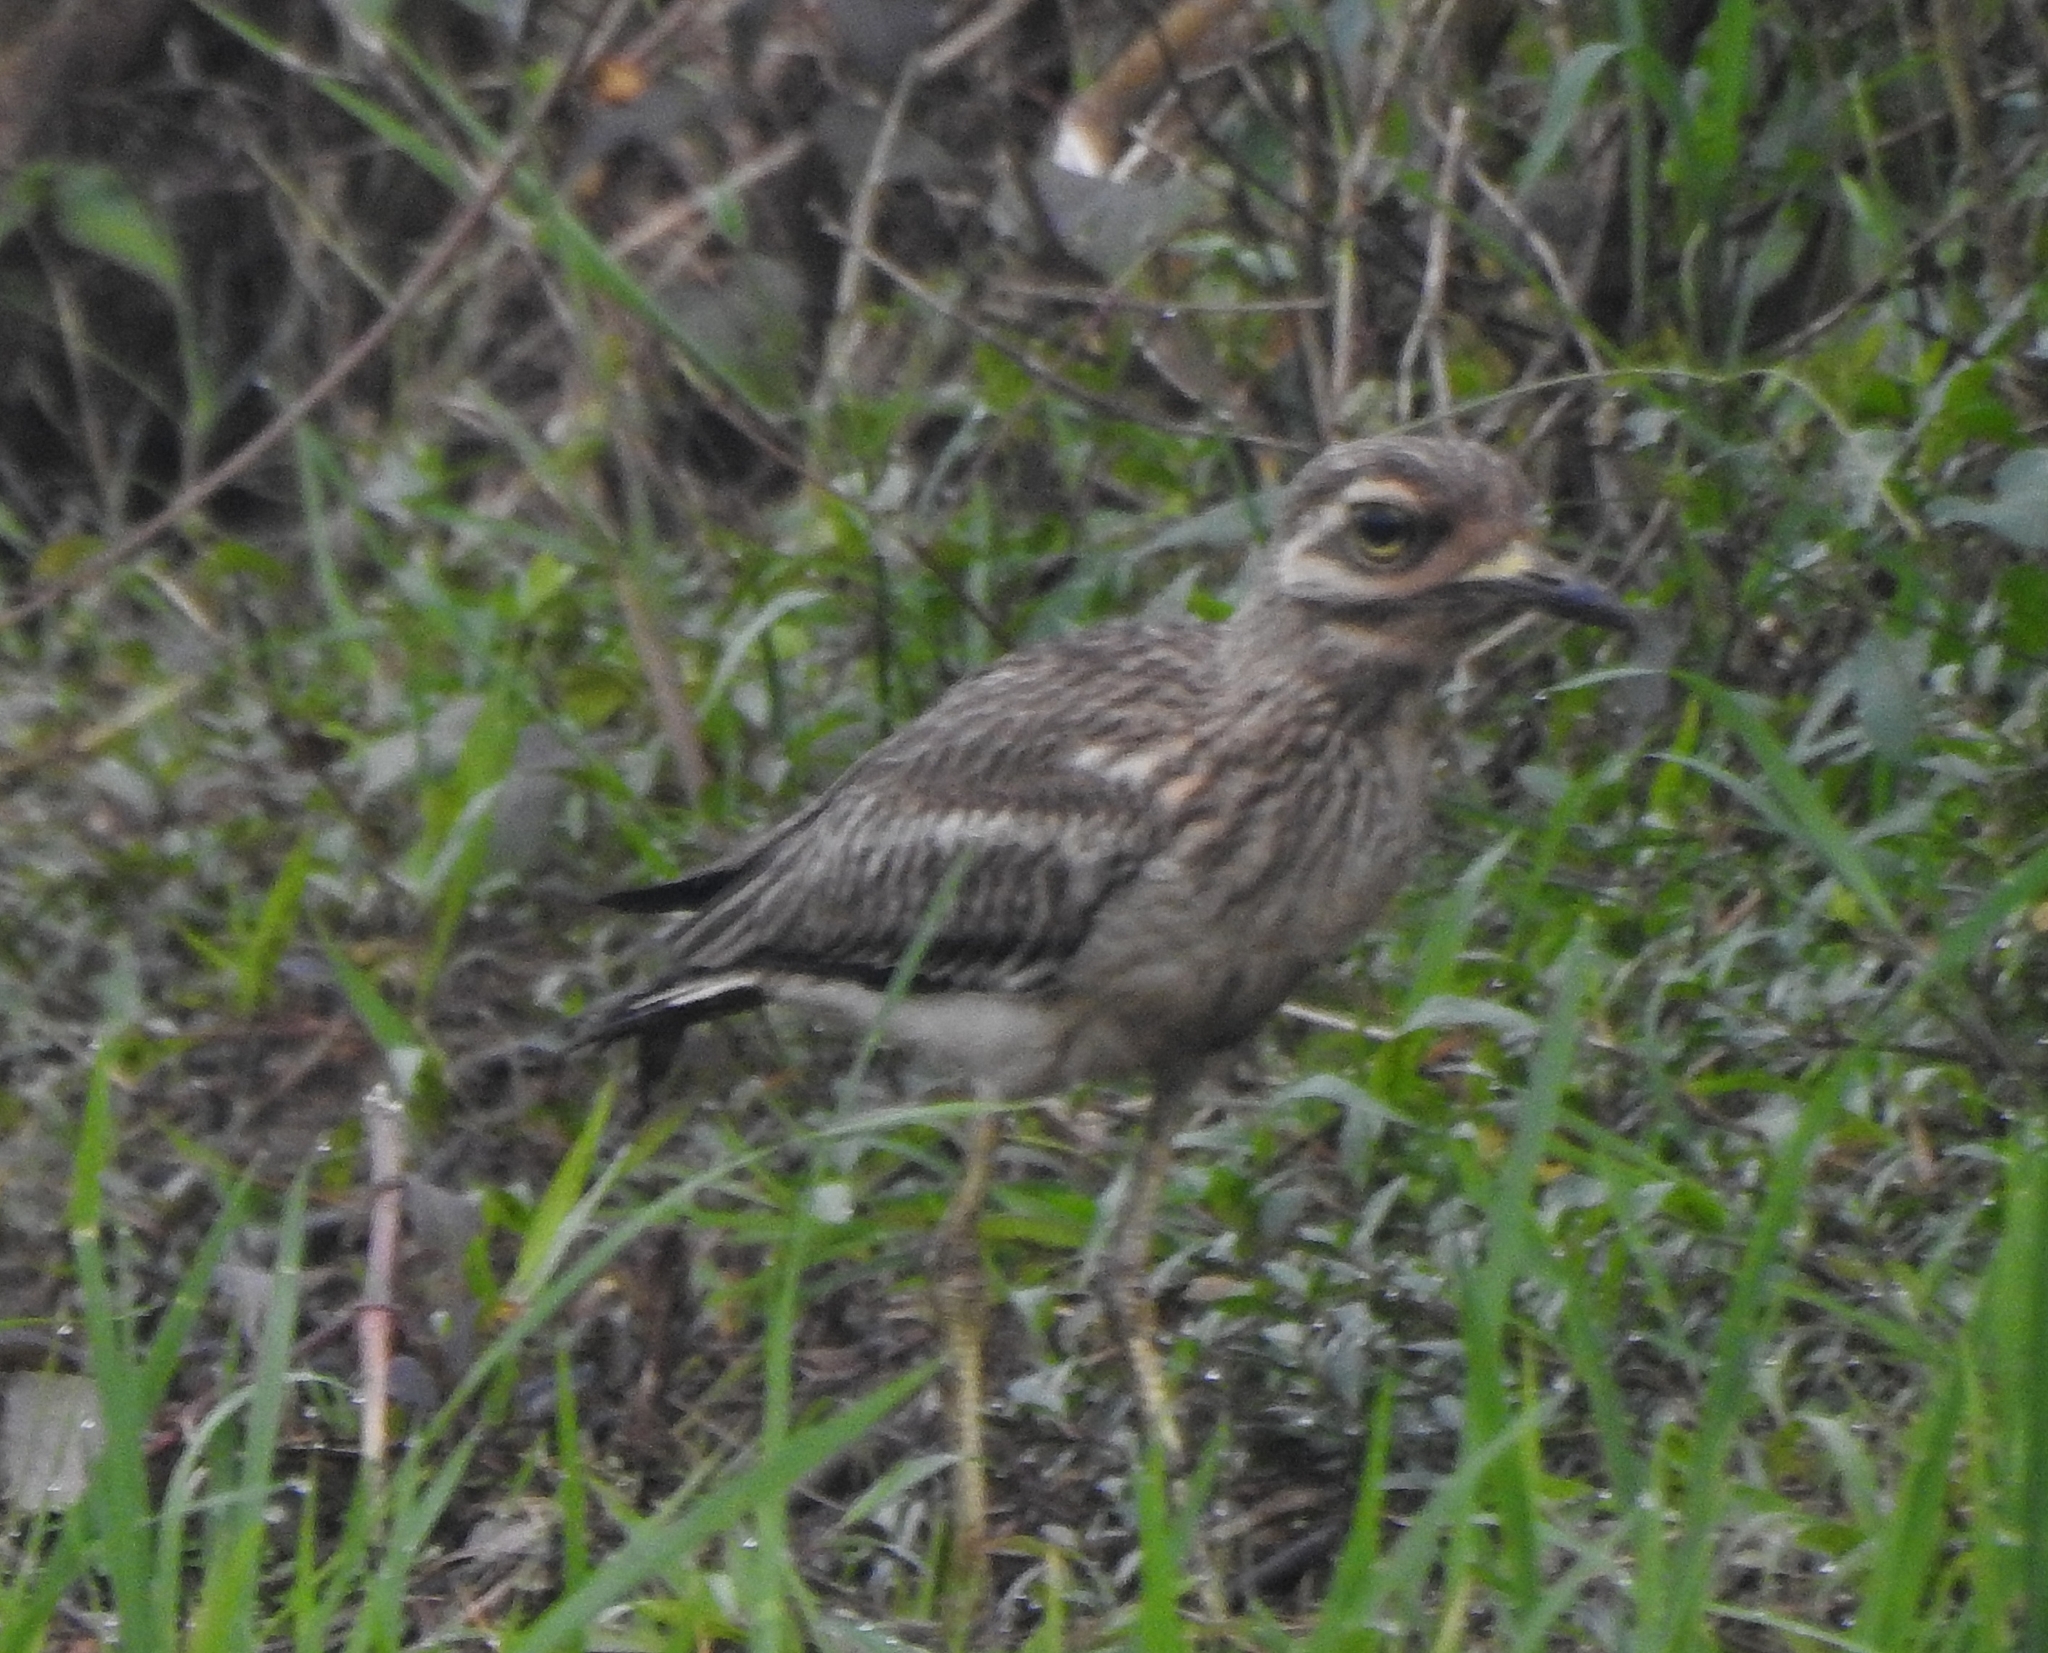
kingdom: Animalia
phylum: Chordata
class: Aves
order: Charadriiformes
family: Burhinidae
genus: Burhinus
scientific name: Burhinus indicus
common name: Indian thick-knee
